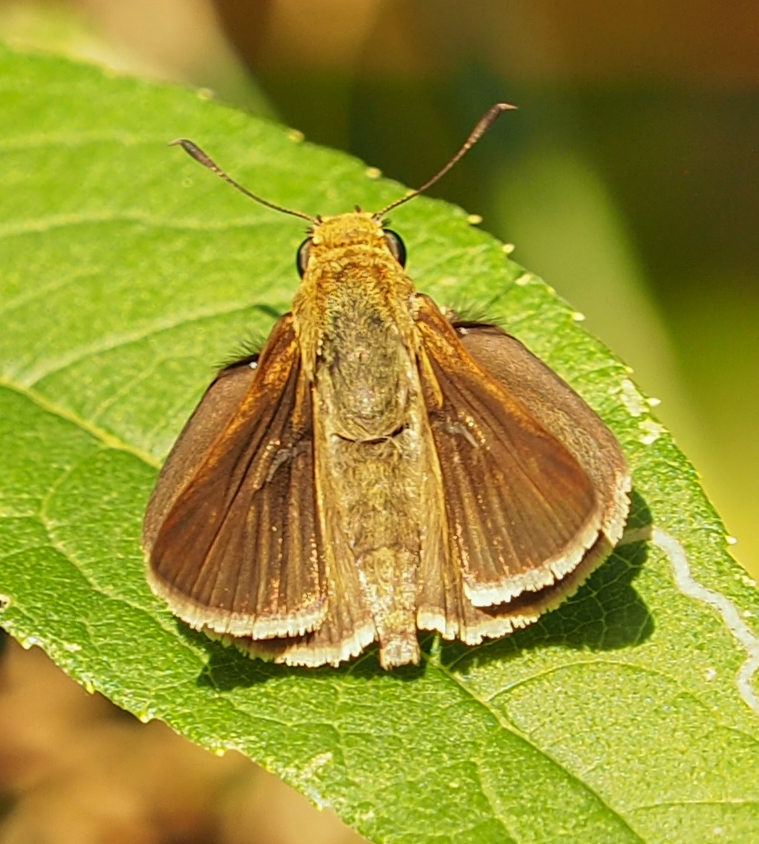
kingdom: Animalia
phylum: Arthropoda
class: Insecta
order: Lepidoptera
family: Hesperiidae
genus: Euphyes
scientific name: Euphyes vestris
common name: Dun skipper
